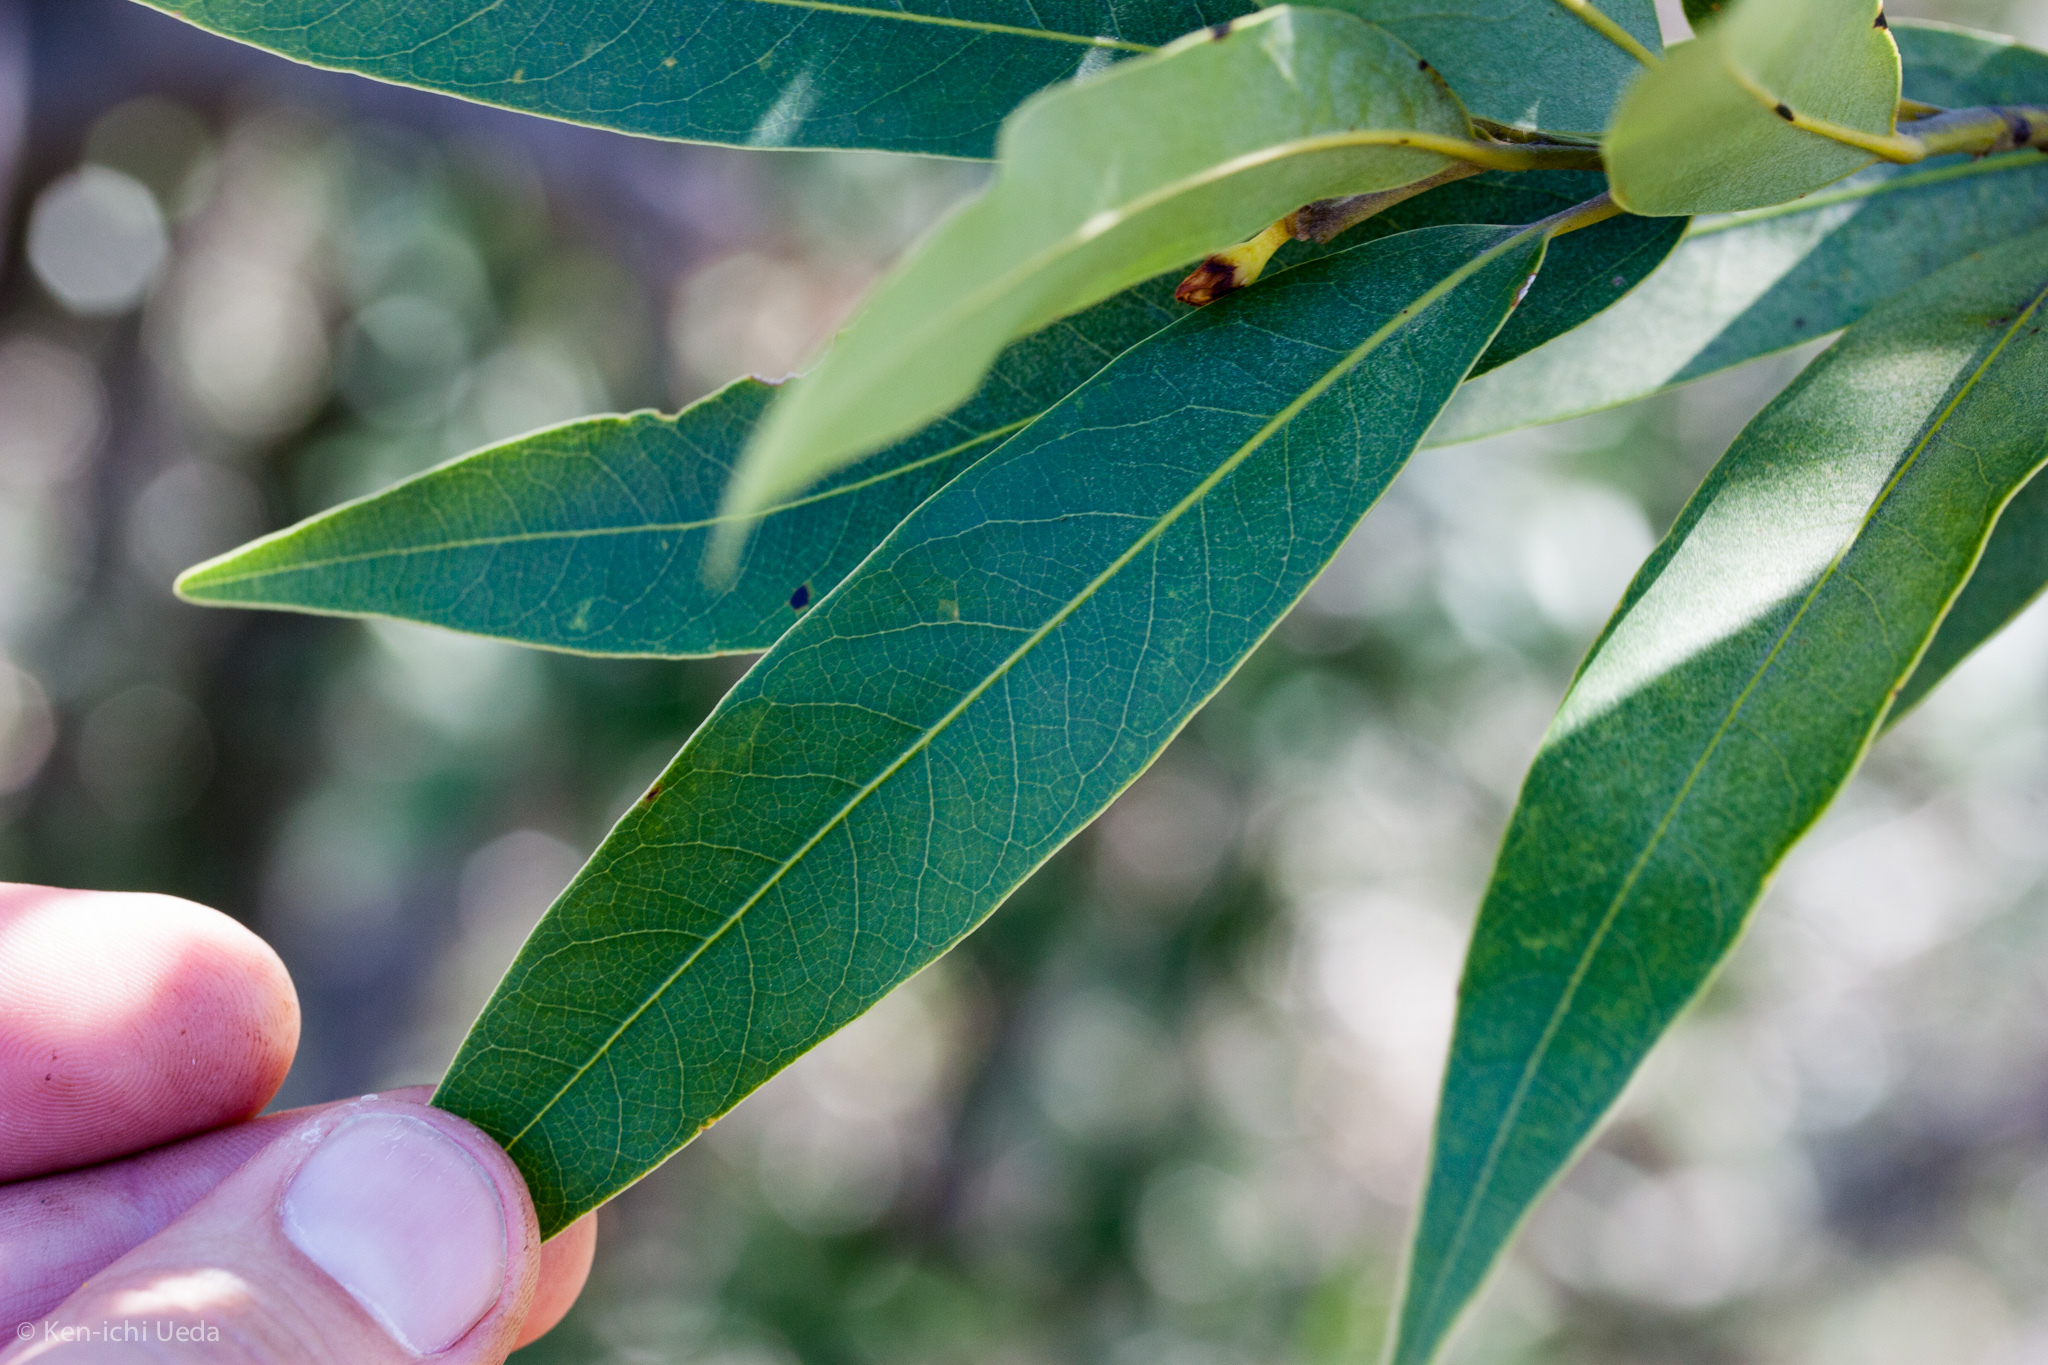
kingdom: Plantae
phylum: Tracheophyta
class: Magnoliopsida
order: Laurales
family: Lauraceae
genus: Umbellularia
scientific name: Umbellularia californica
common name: California bay
